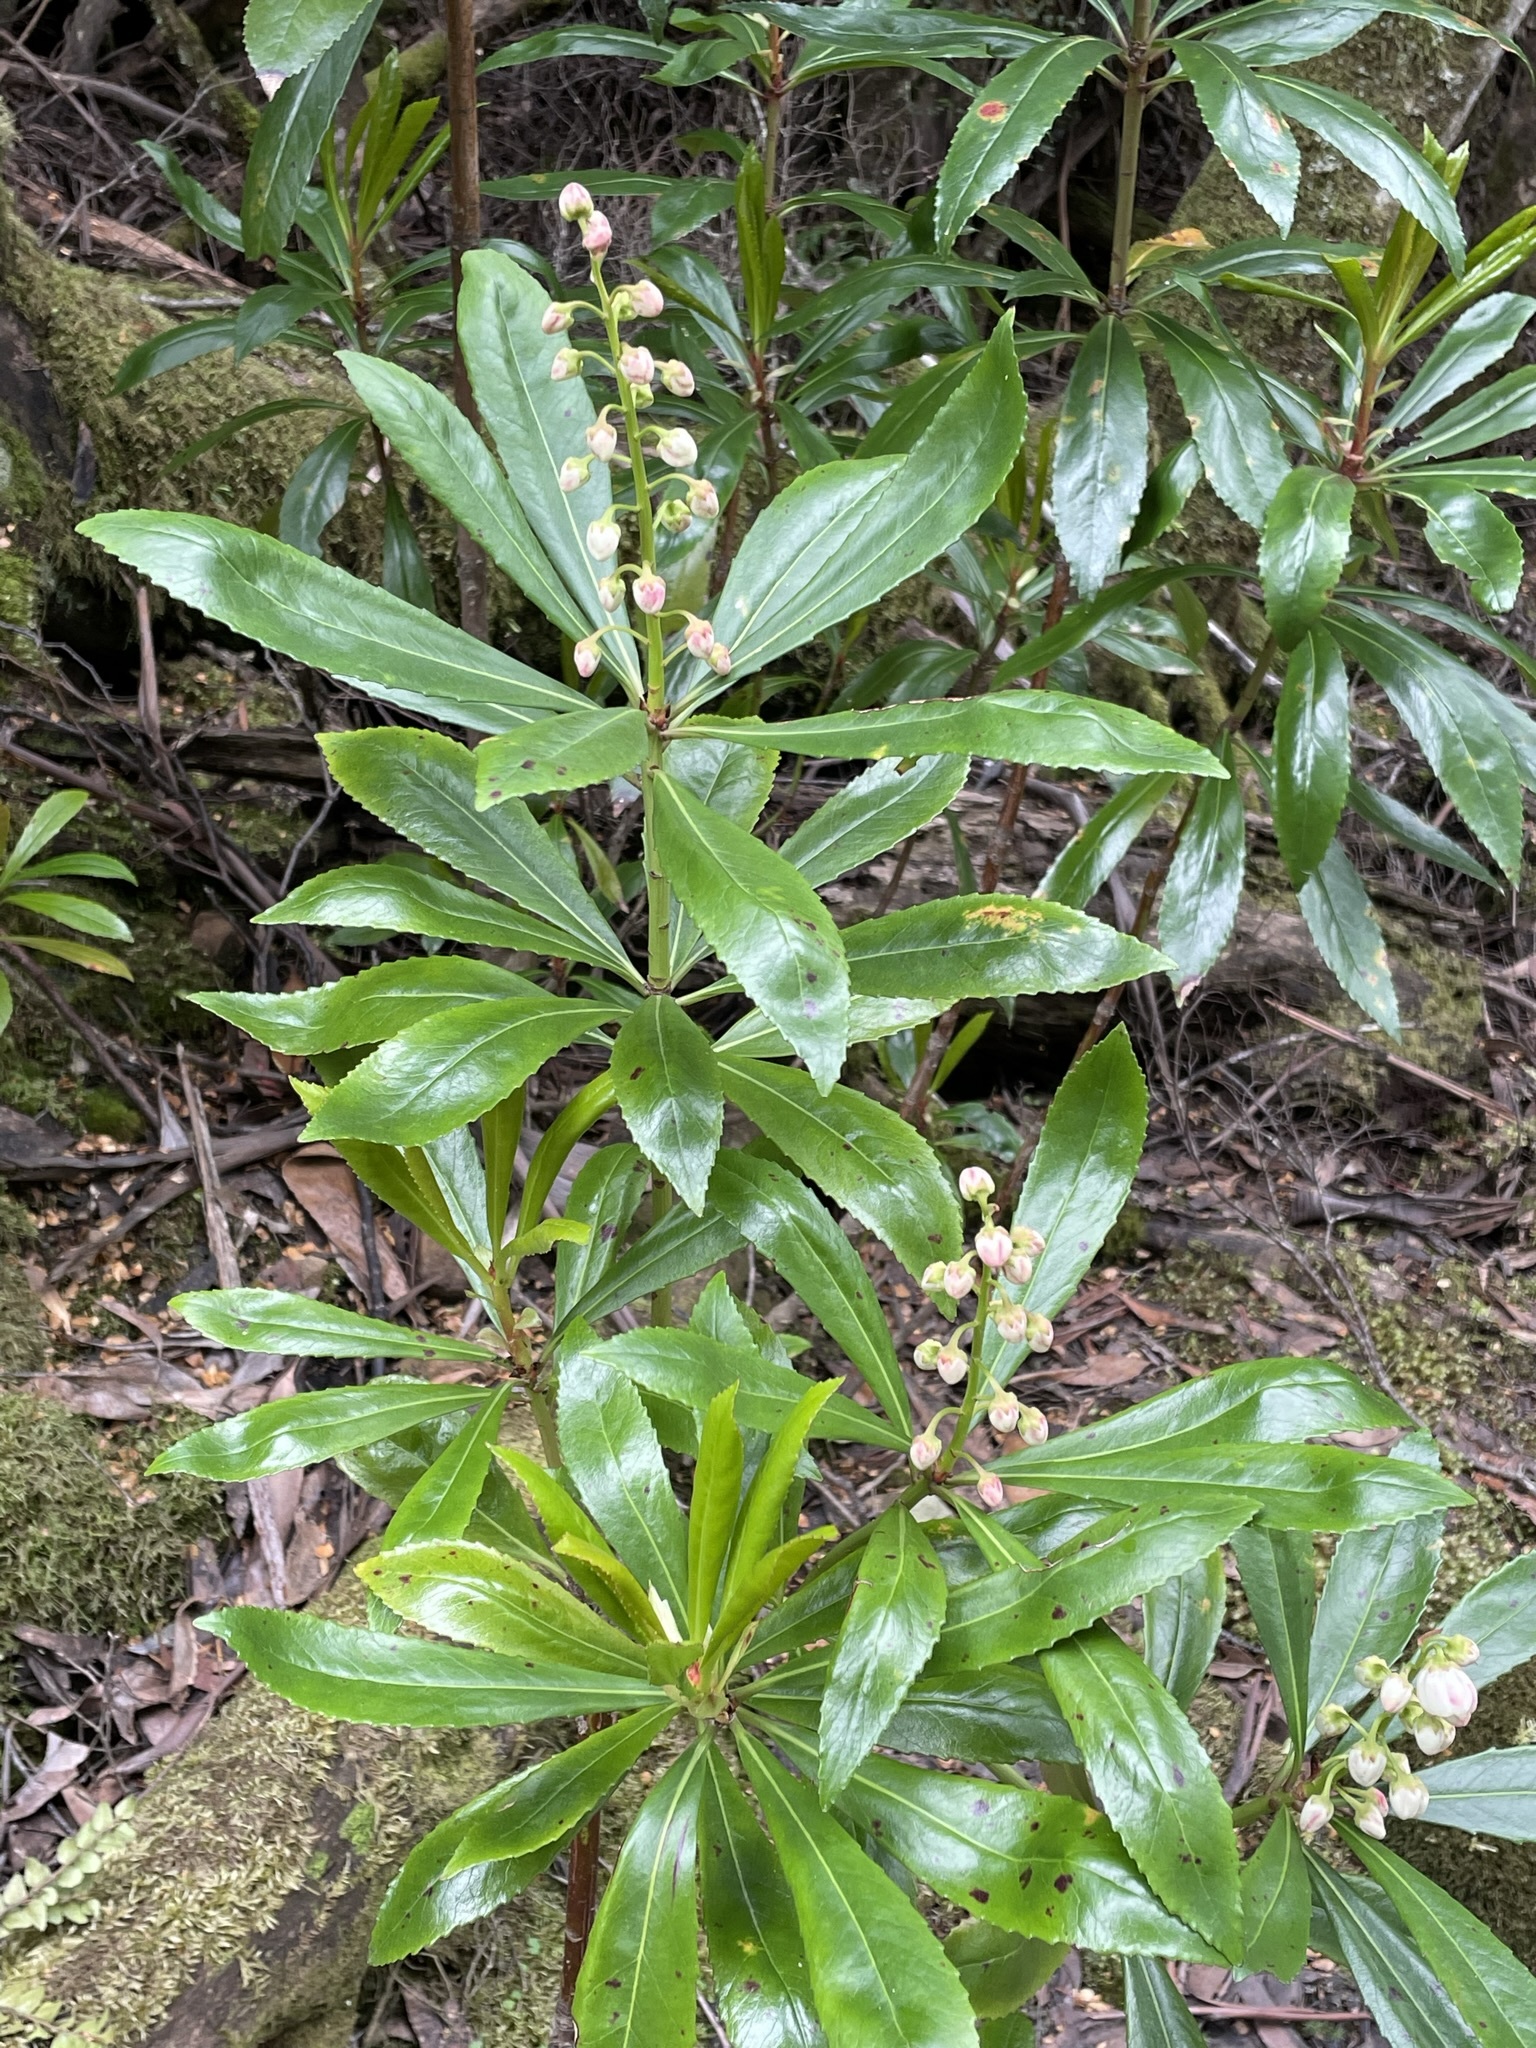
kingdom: Plantae
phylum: Tracheophyta
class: Magnoliopsida
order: Escalloniales
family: Escalloniaceae
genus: Anopterus
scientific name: Anopterus glandulosus
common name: Tasmanian-laurel
